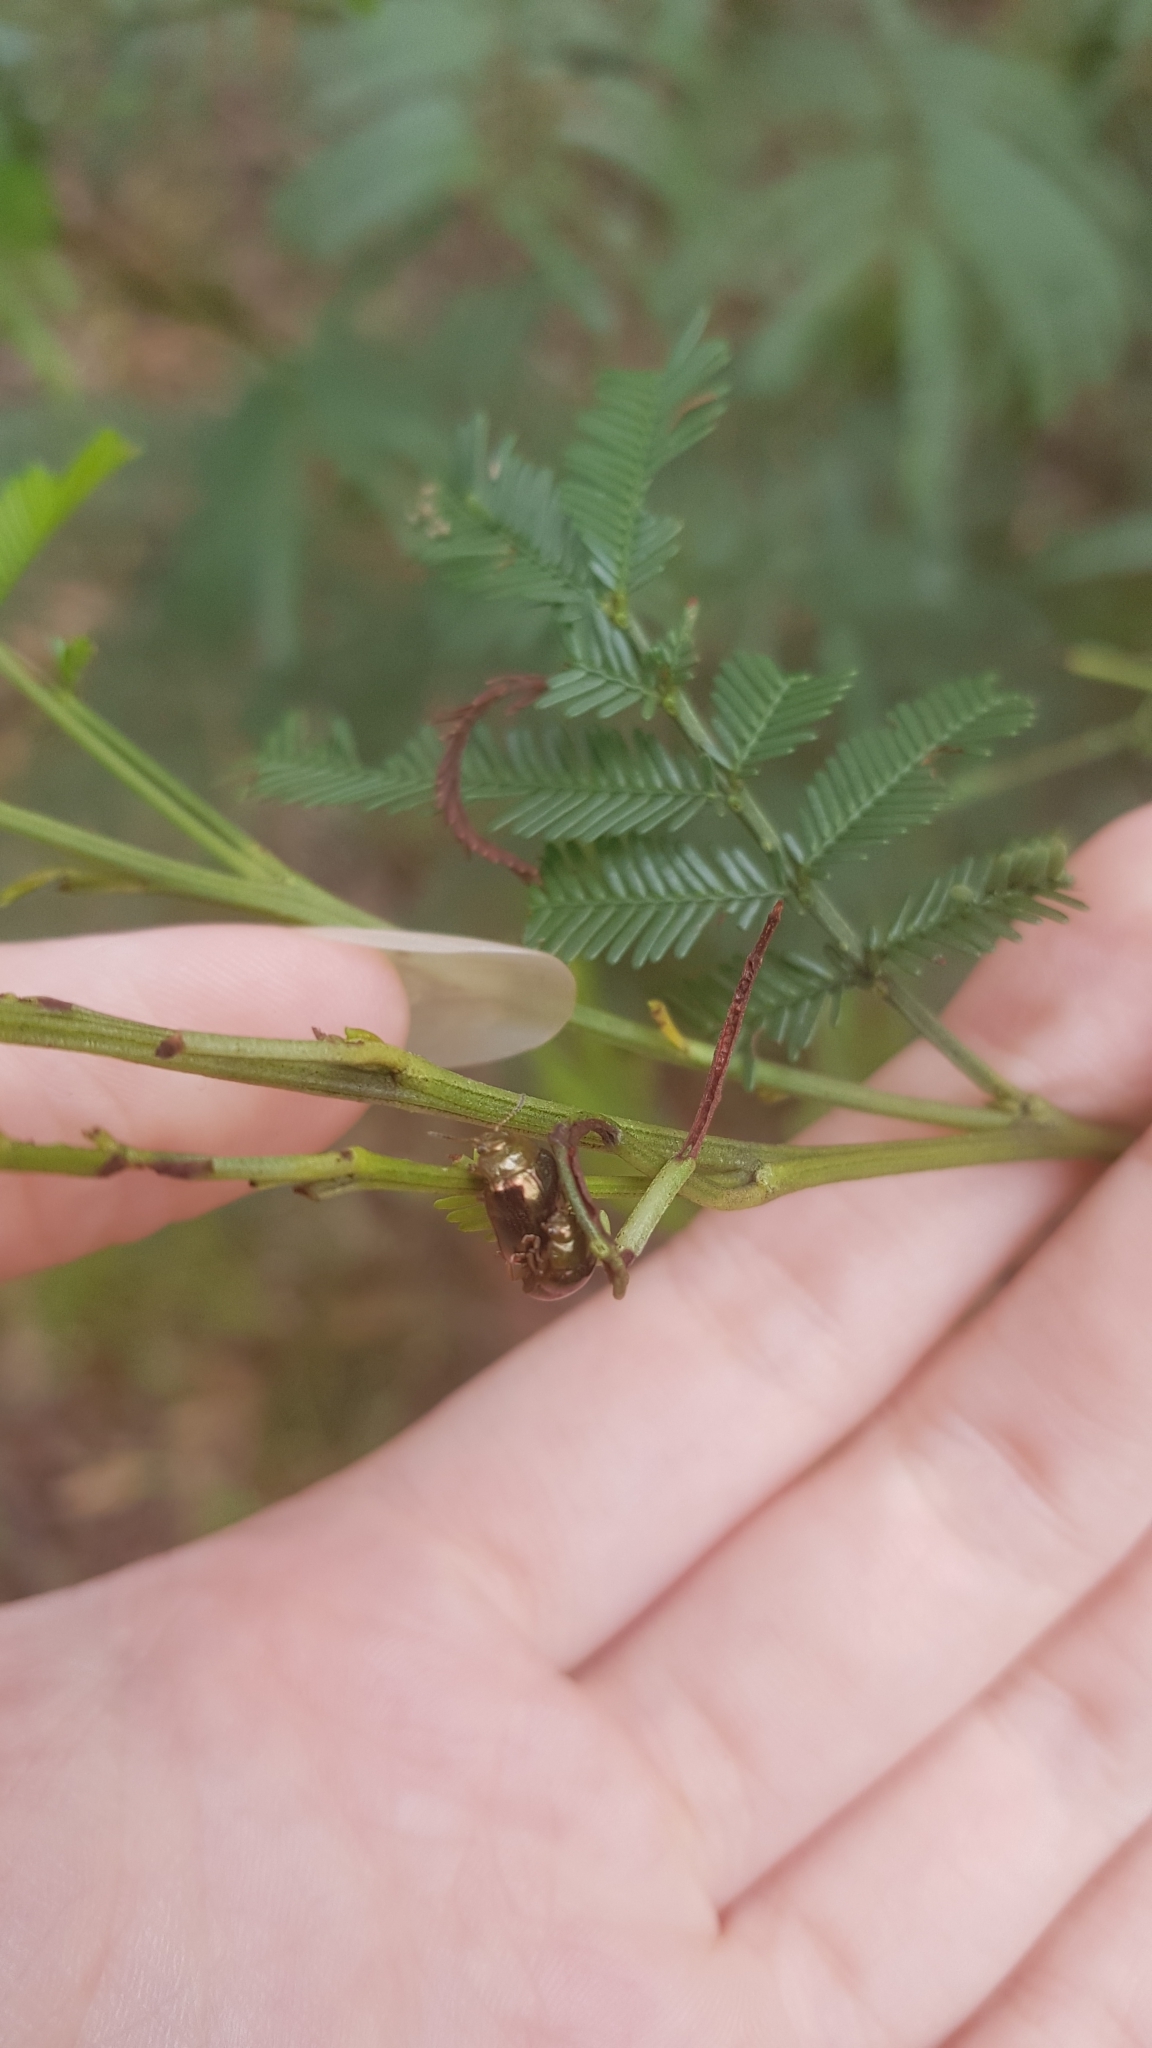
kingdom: Animalia
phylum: Arthropoda
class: Insecta
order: Coleoptera
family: Chrysomelidae
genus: Calomela
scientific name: Calomela
